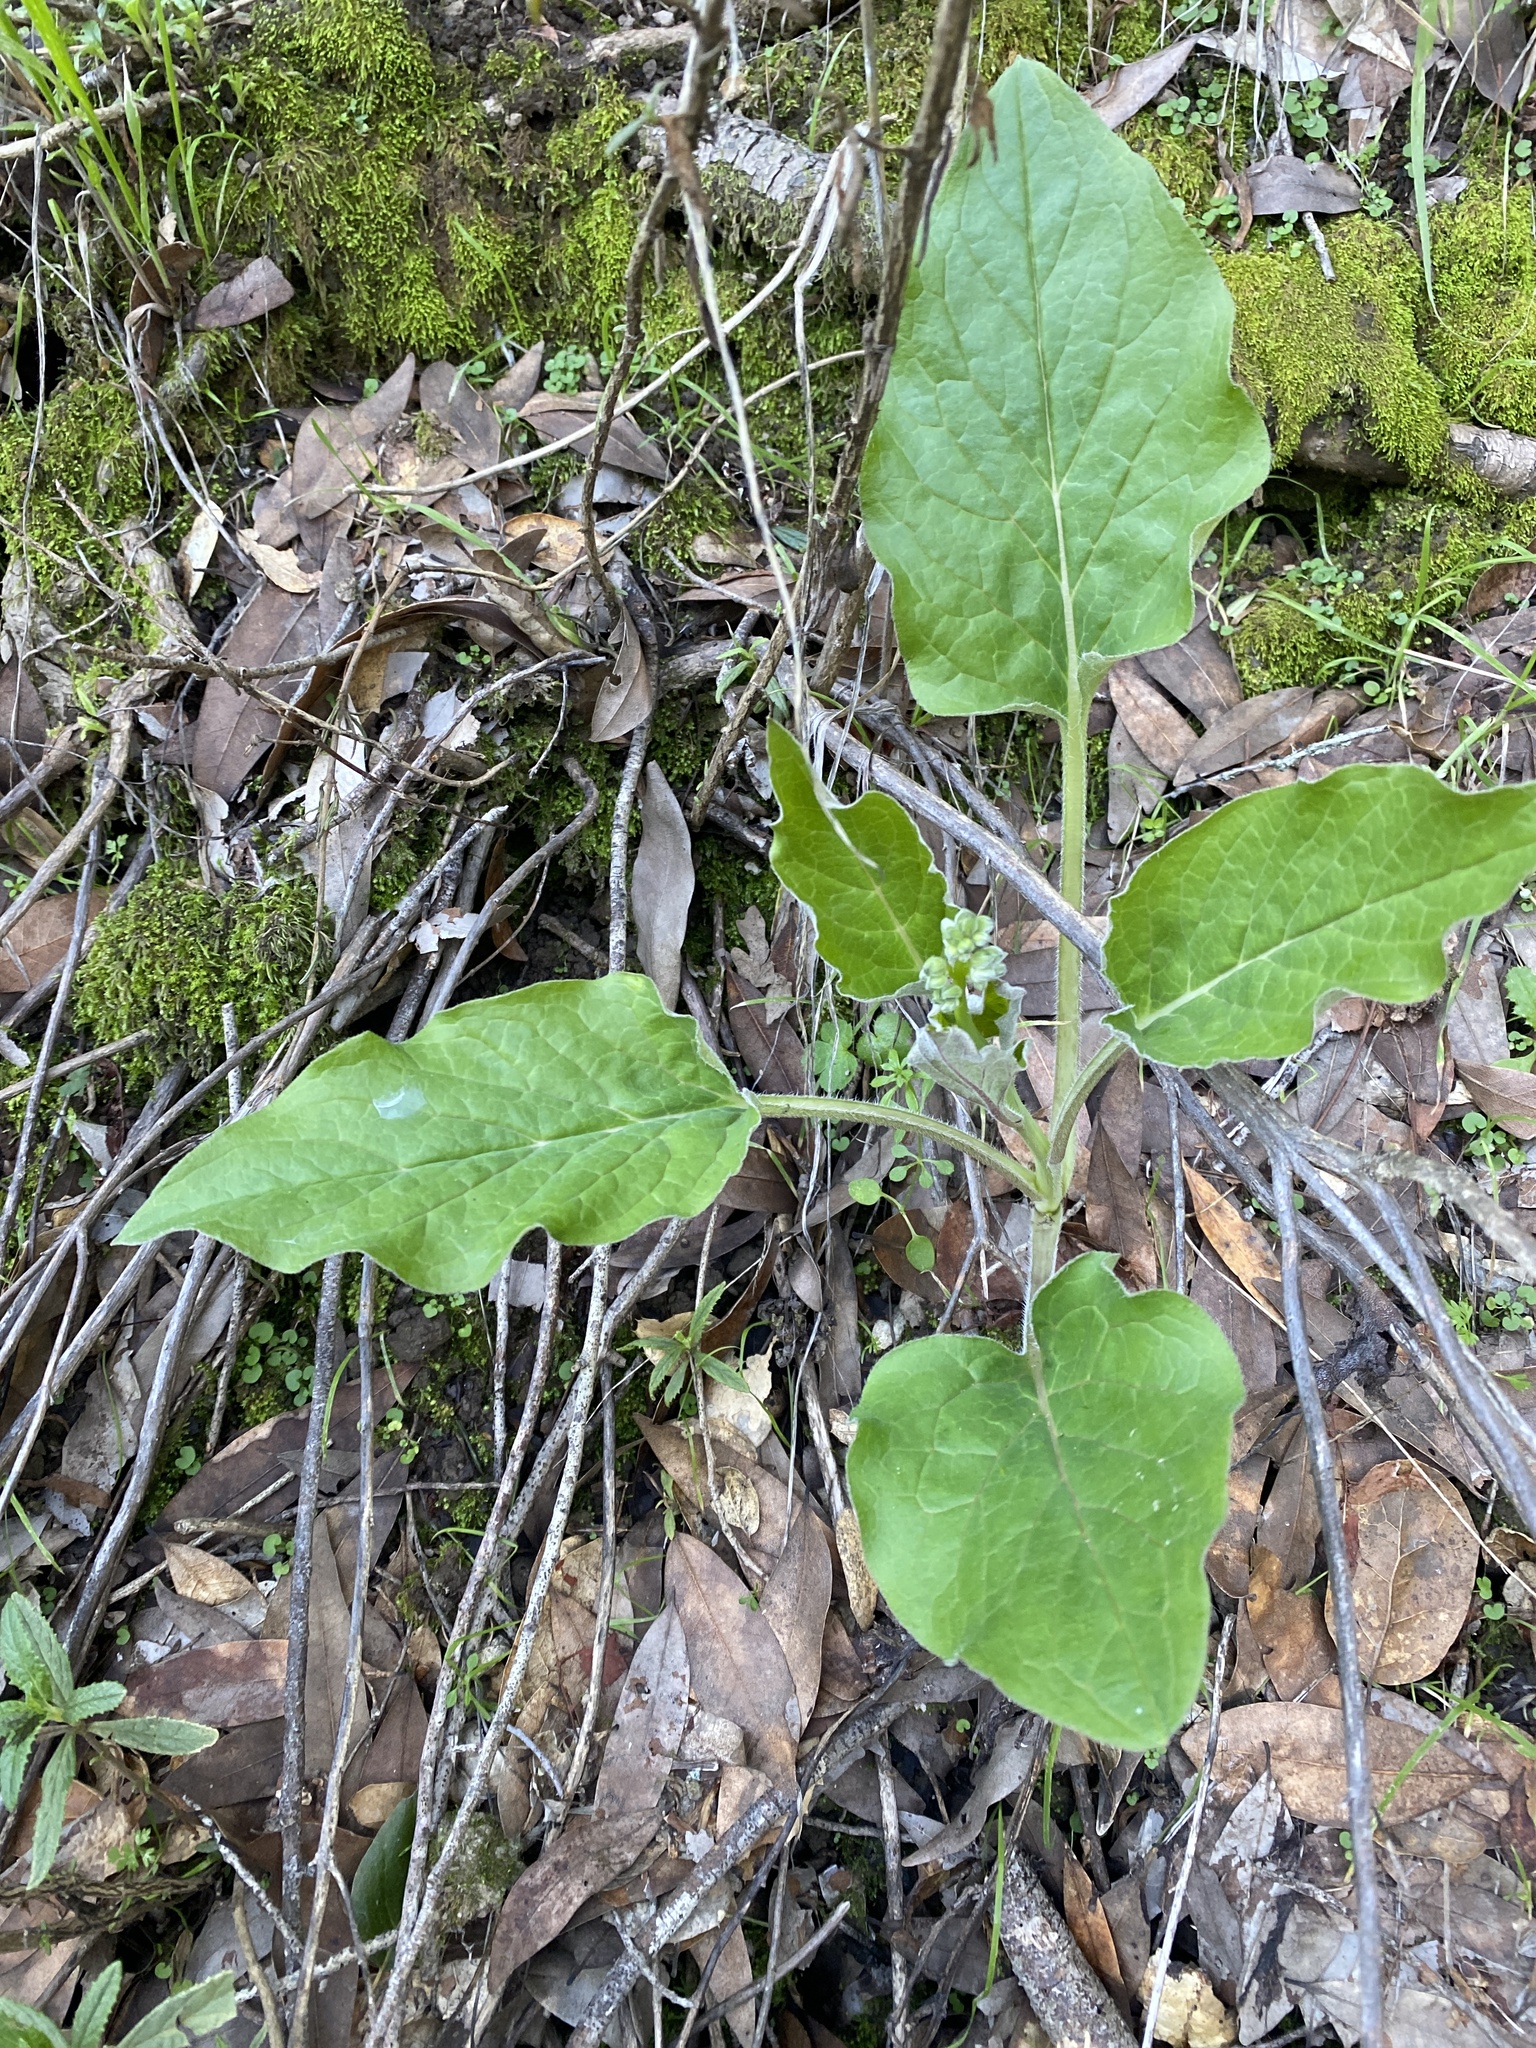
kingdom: Plantae
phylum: Tracheophyta
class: Magnoliopsida
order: Boraginales
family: Boraginaceae
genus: Adelinia
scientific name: Adelinia grande
